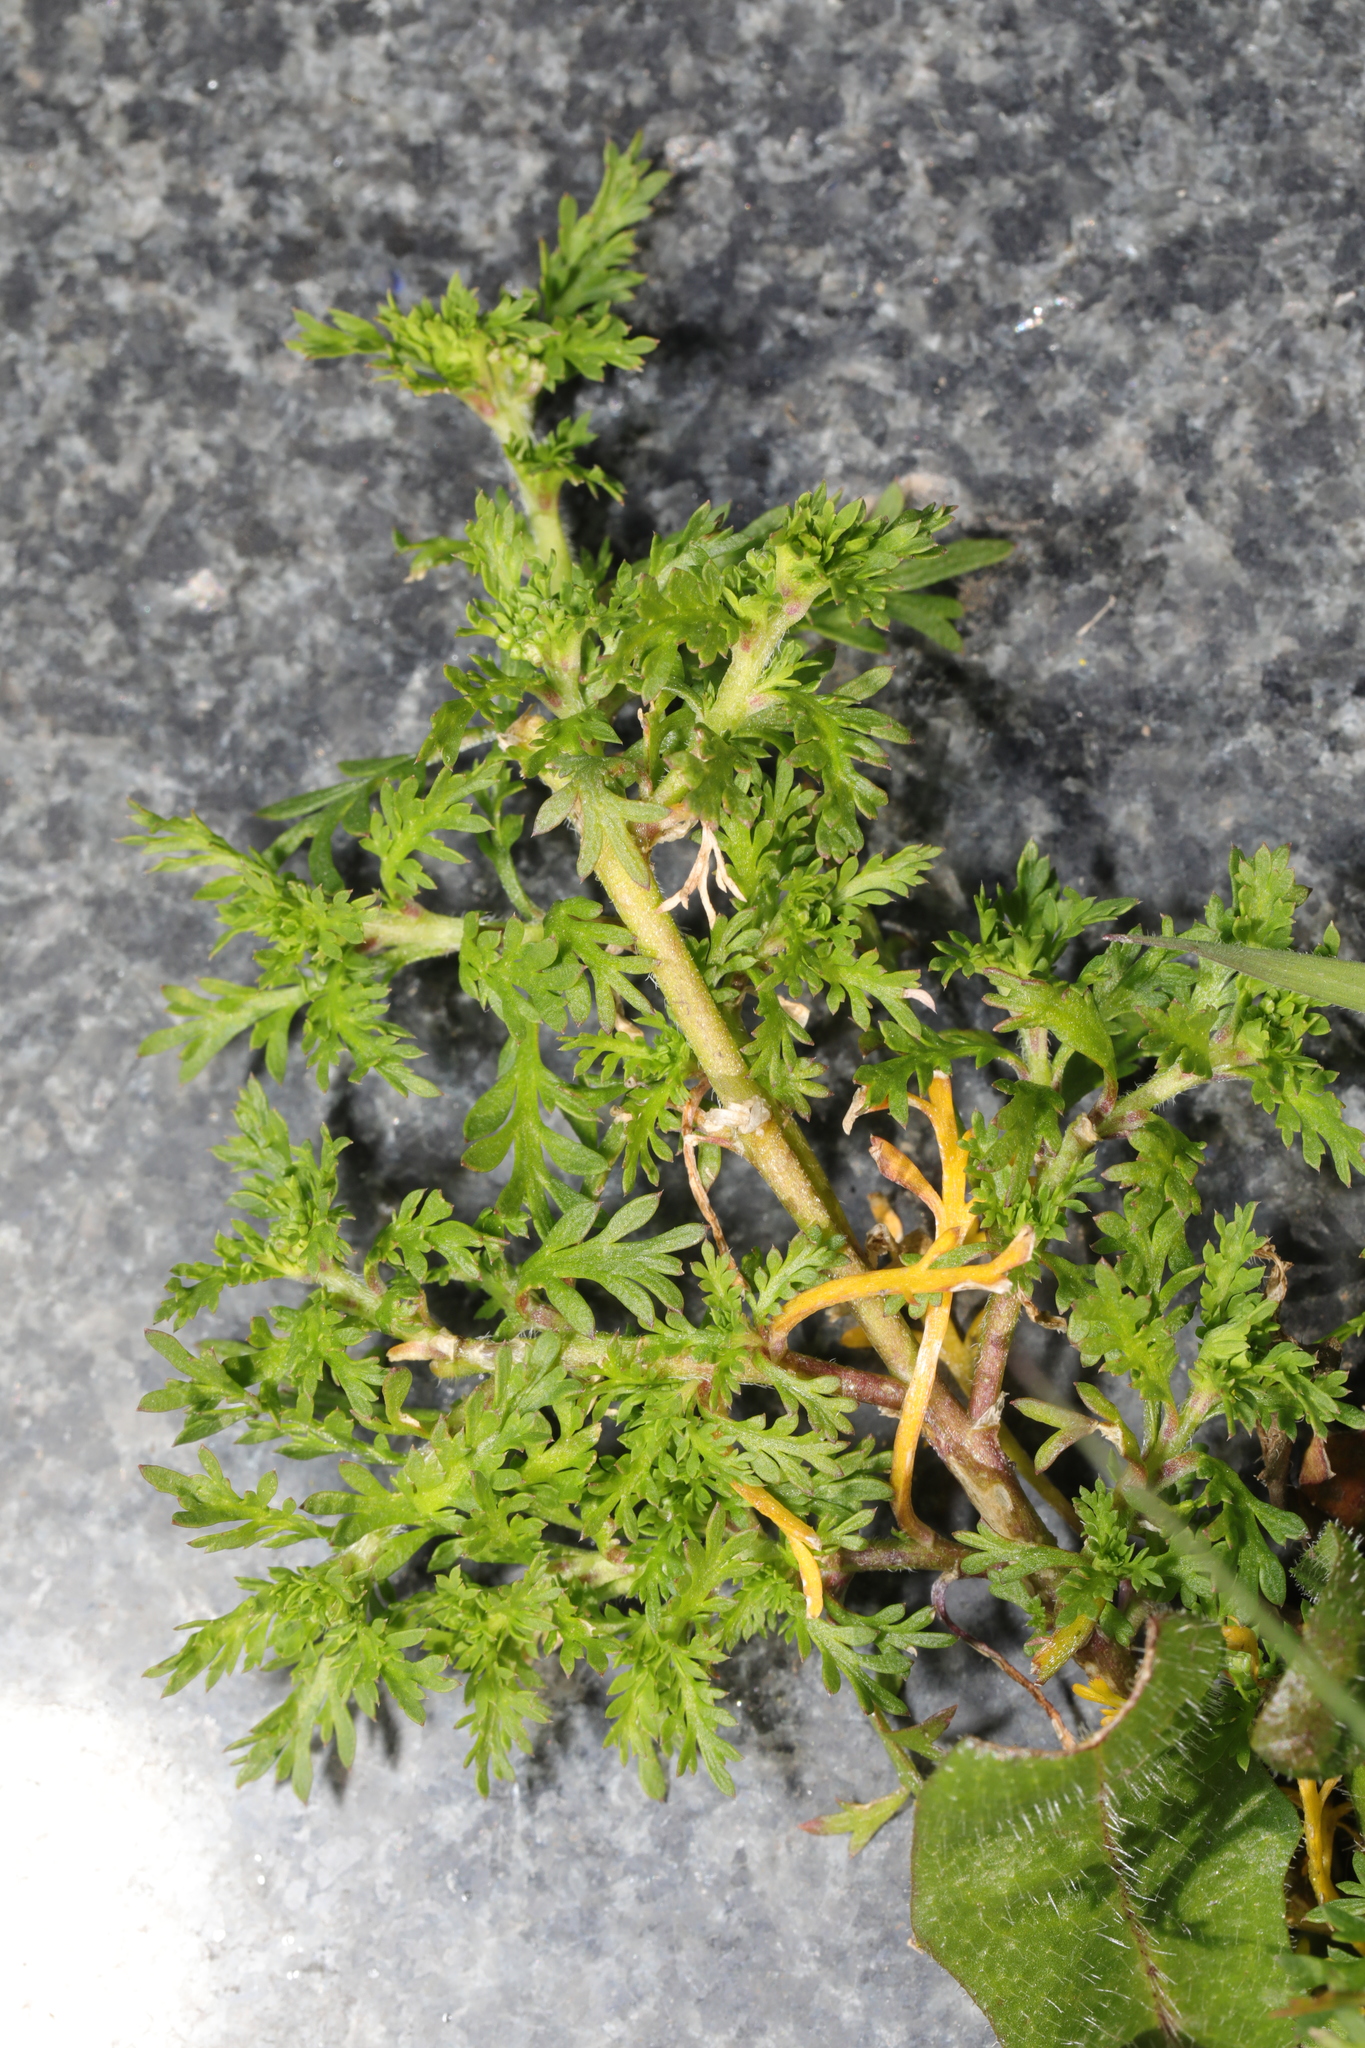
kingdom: Plantae
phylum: Tracheophyta
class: Magnoliopsida
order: Brassicales
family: Brassicaceae
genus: Lepidium
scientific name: Lepidium didymum
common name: Lesser swinecress
